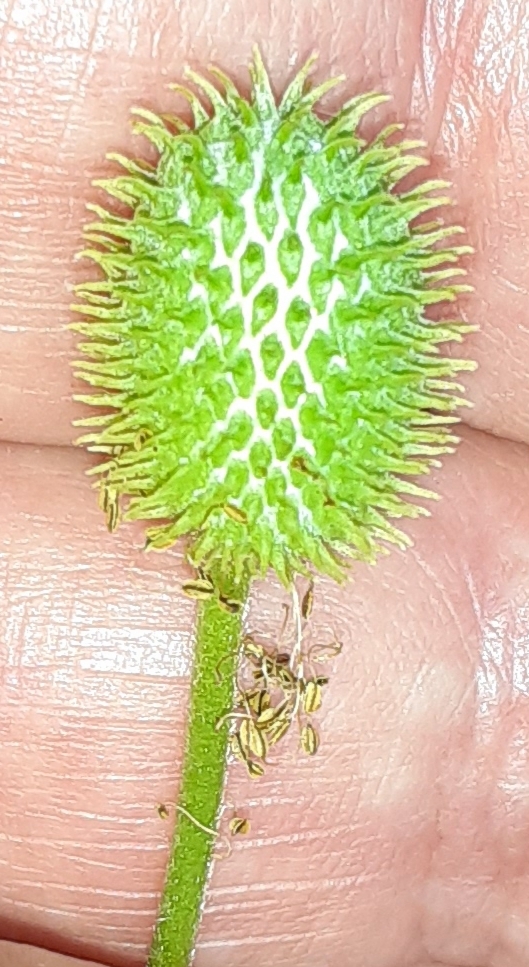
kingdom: Plantae
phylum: Tracheophyta
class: Magnoliopsida
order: Ranunculales
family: Ranunculaceae
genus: Anemone
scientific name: Anemone virginiana
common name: Tall anemone
